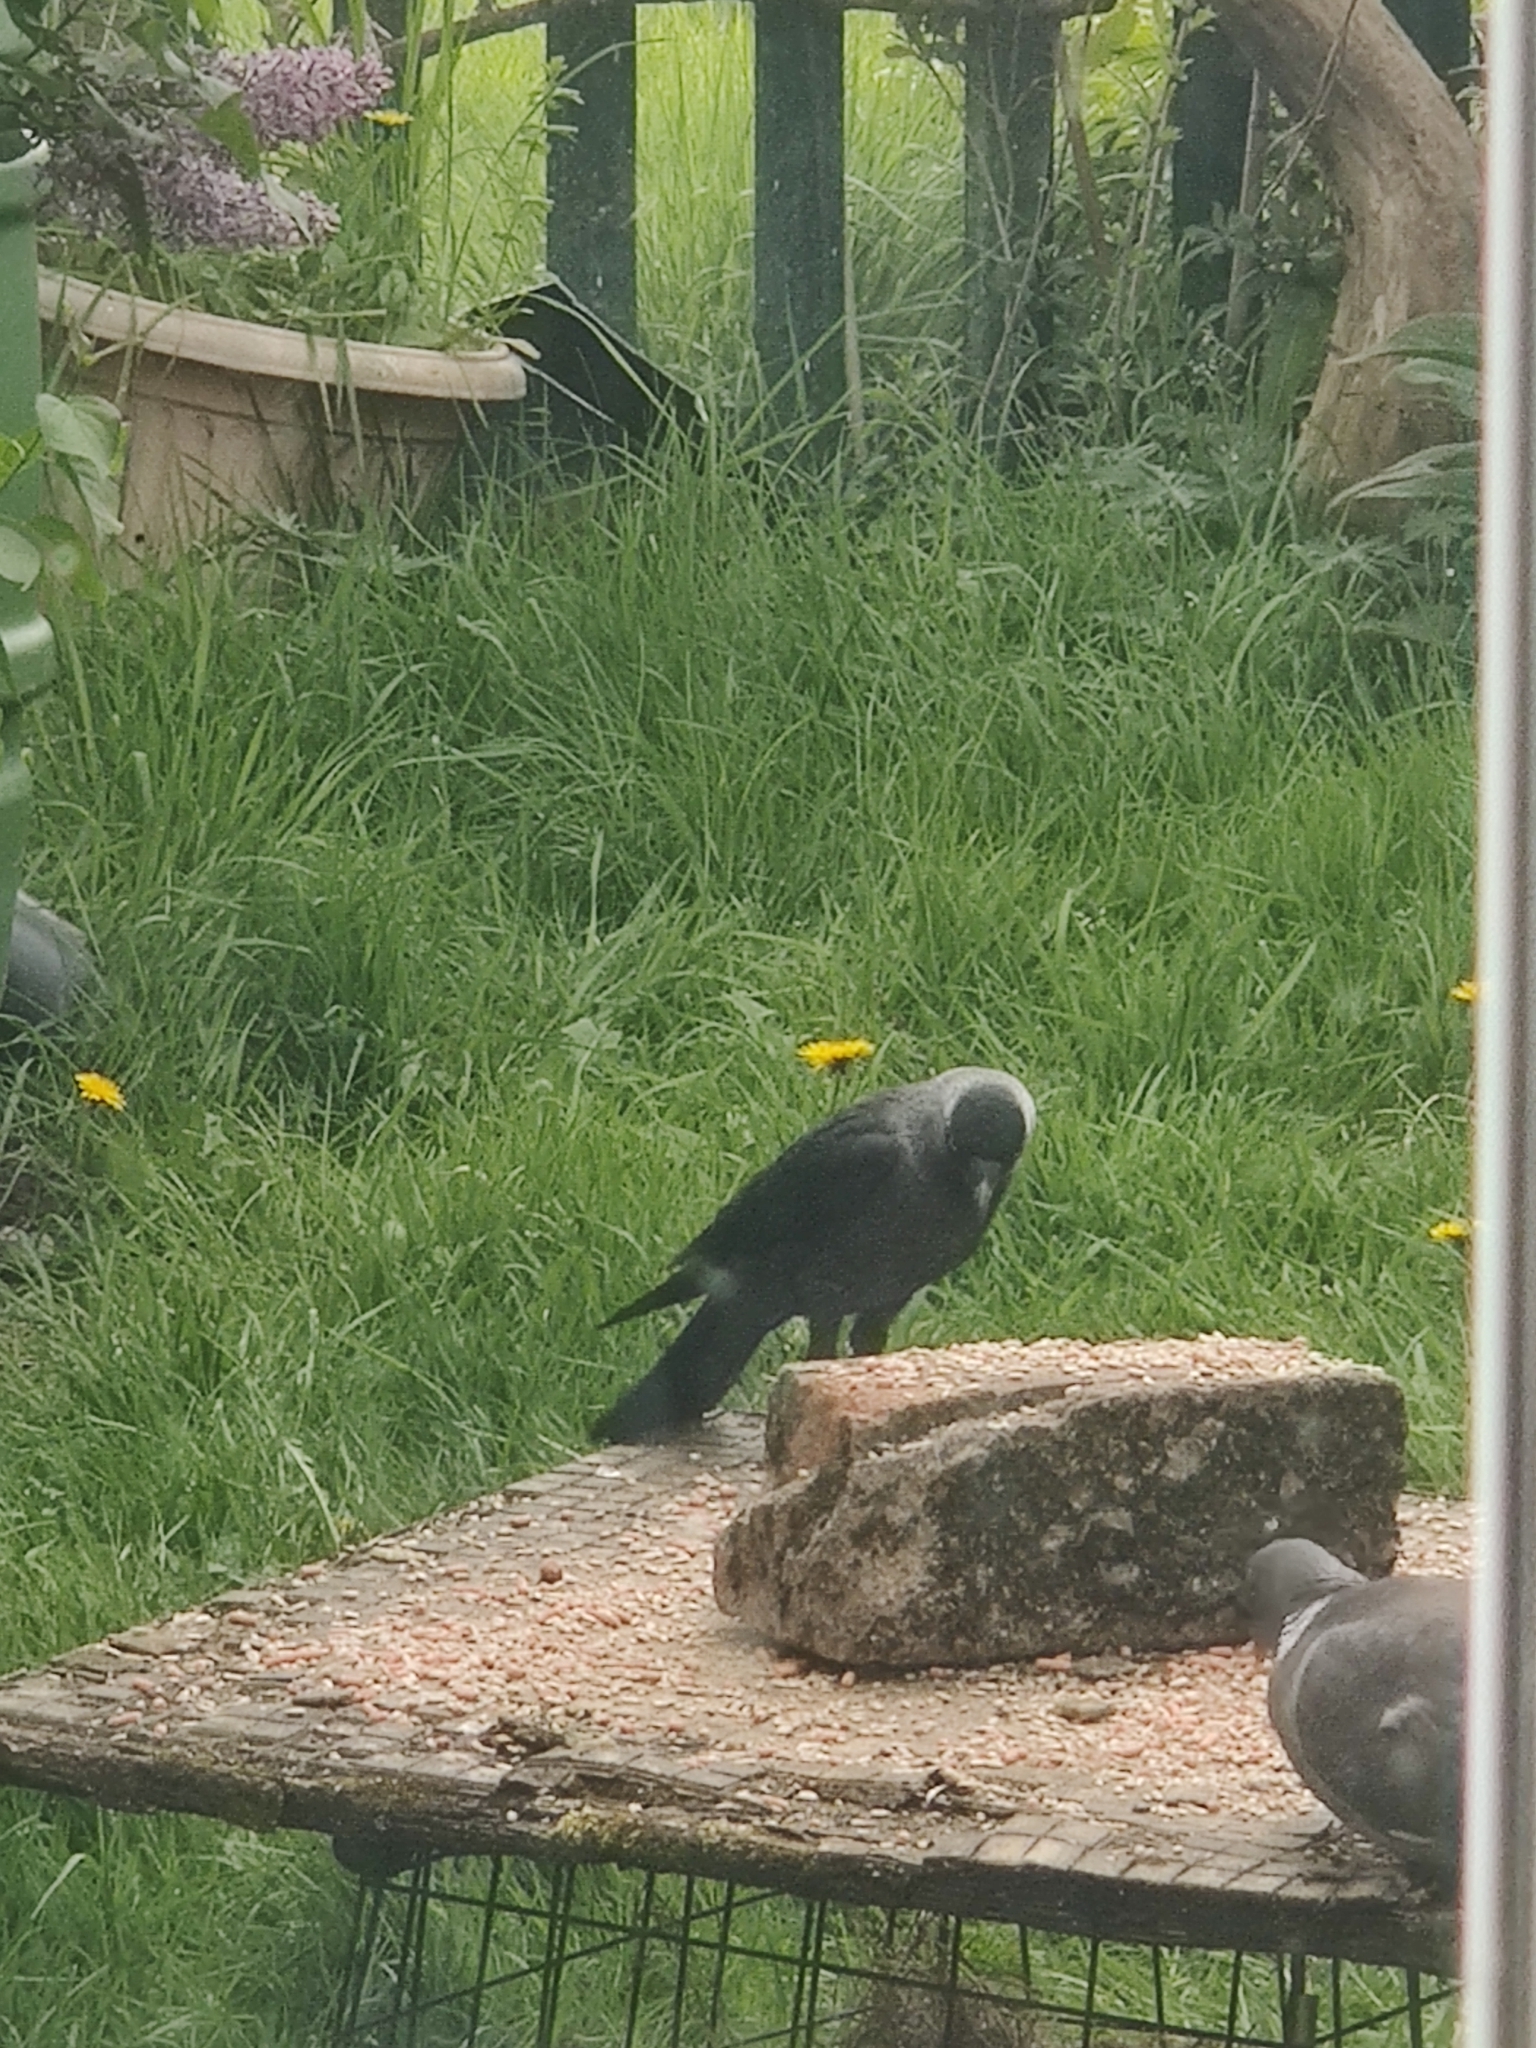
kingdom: Animalia
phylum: Chordata
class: Aves
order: Passeriformes
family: Corvidae
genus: Coloeus
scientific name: Coloeus monedula
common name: Western jackdaw
